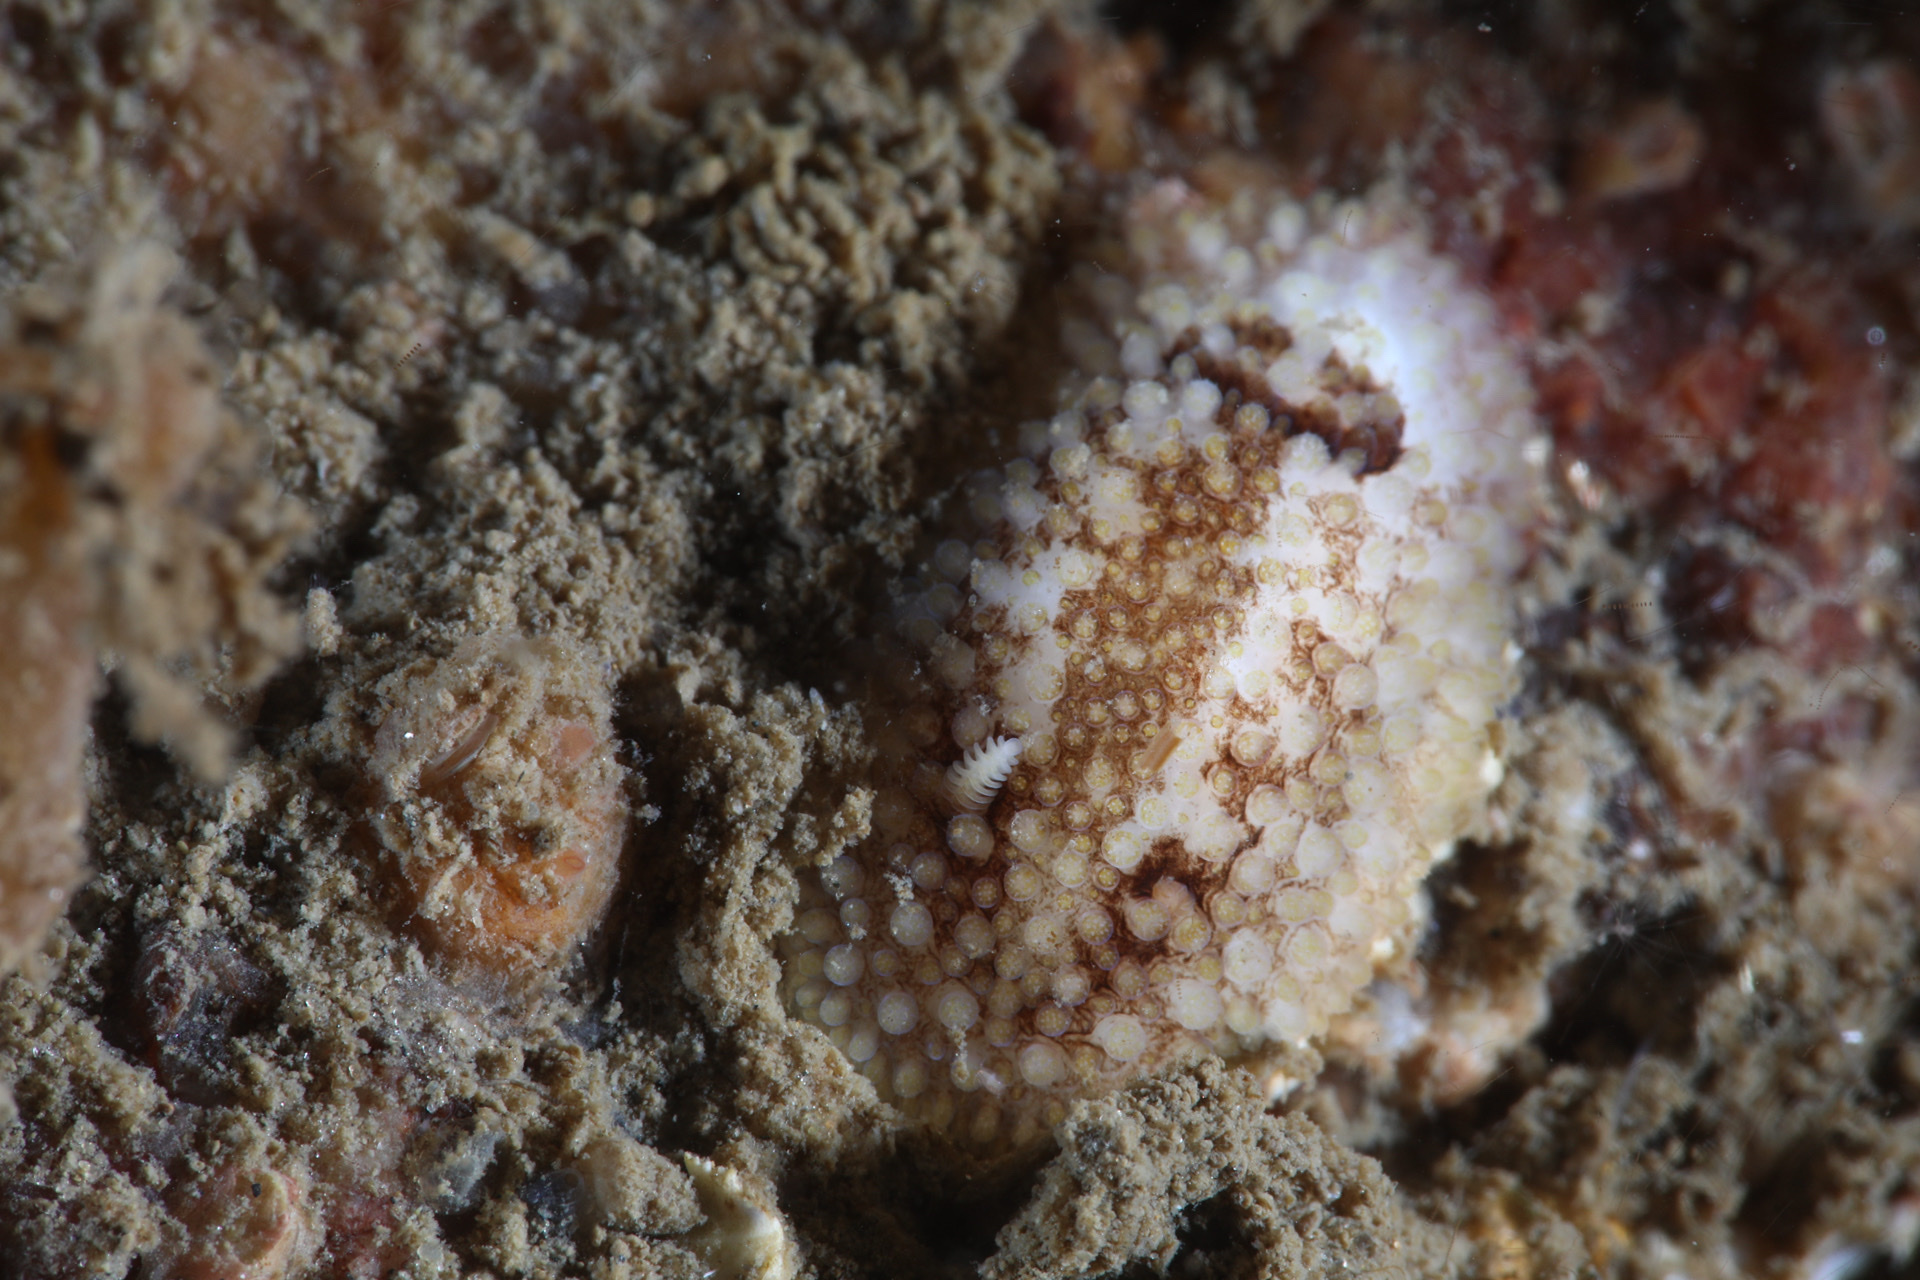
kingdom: Animalia
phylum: Mollusca
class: Gastropoda
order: Nudibranchia
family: Onchidorididae
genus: Onchidoris
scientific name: Onchidoris bilamellata
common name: Barnacle-eating onchidoris
